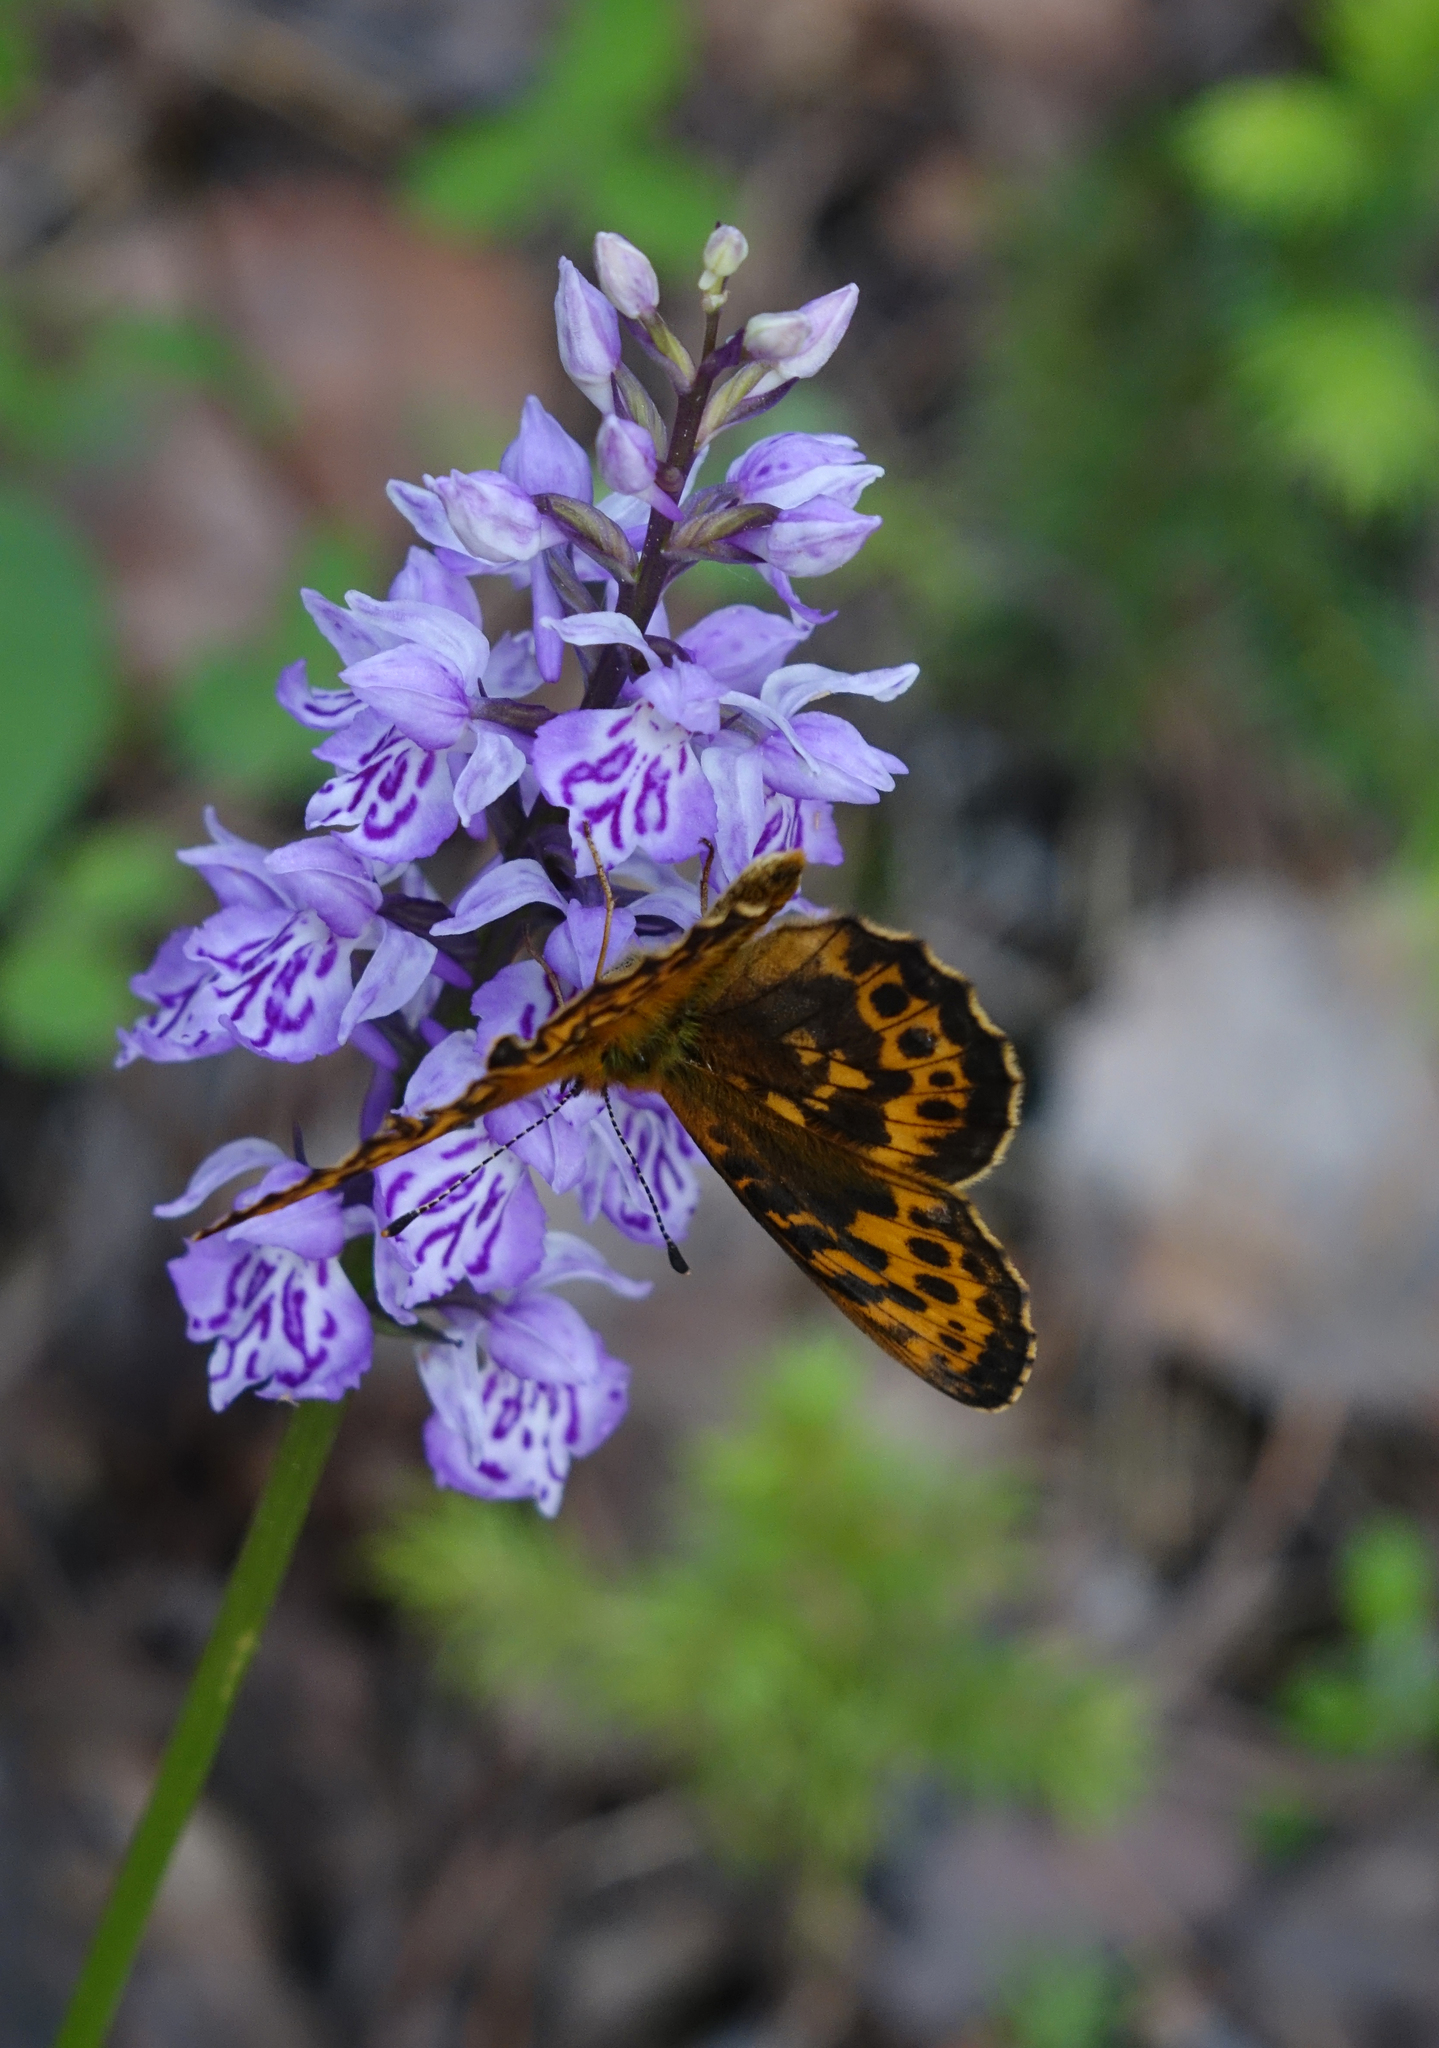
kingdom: Plantae
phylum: Tracheophyta
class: Liliopsida
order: Asparagales
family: Orchidaceae
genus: Dactylorhiza
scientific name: Dactylorhiza maculata
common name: Heath spotted-orchid
